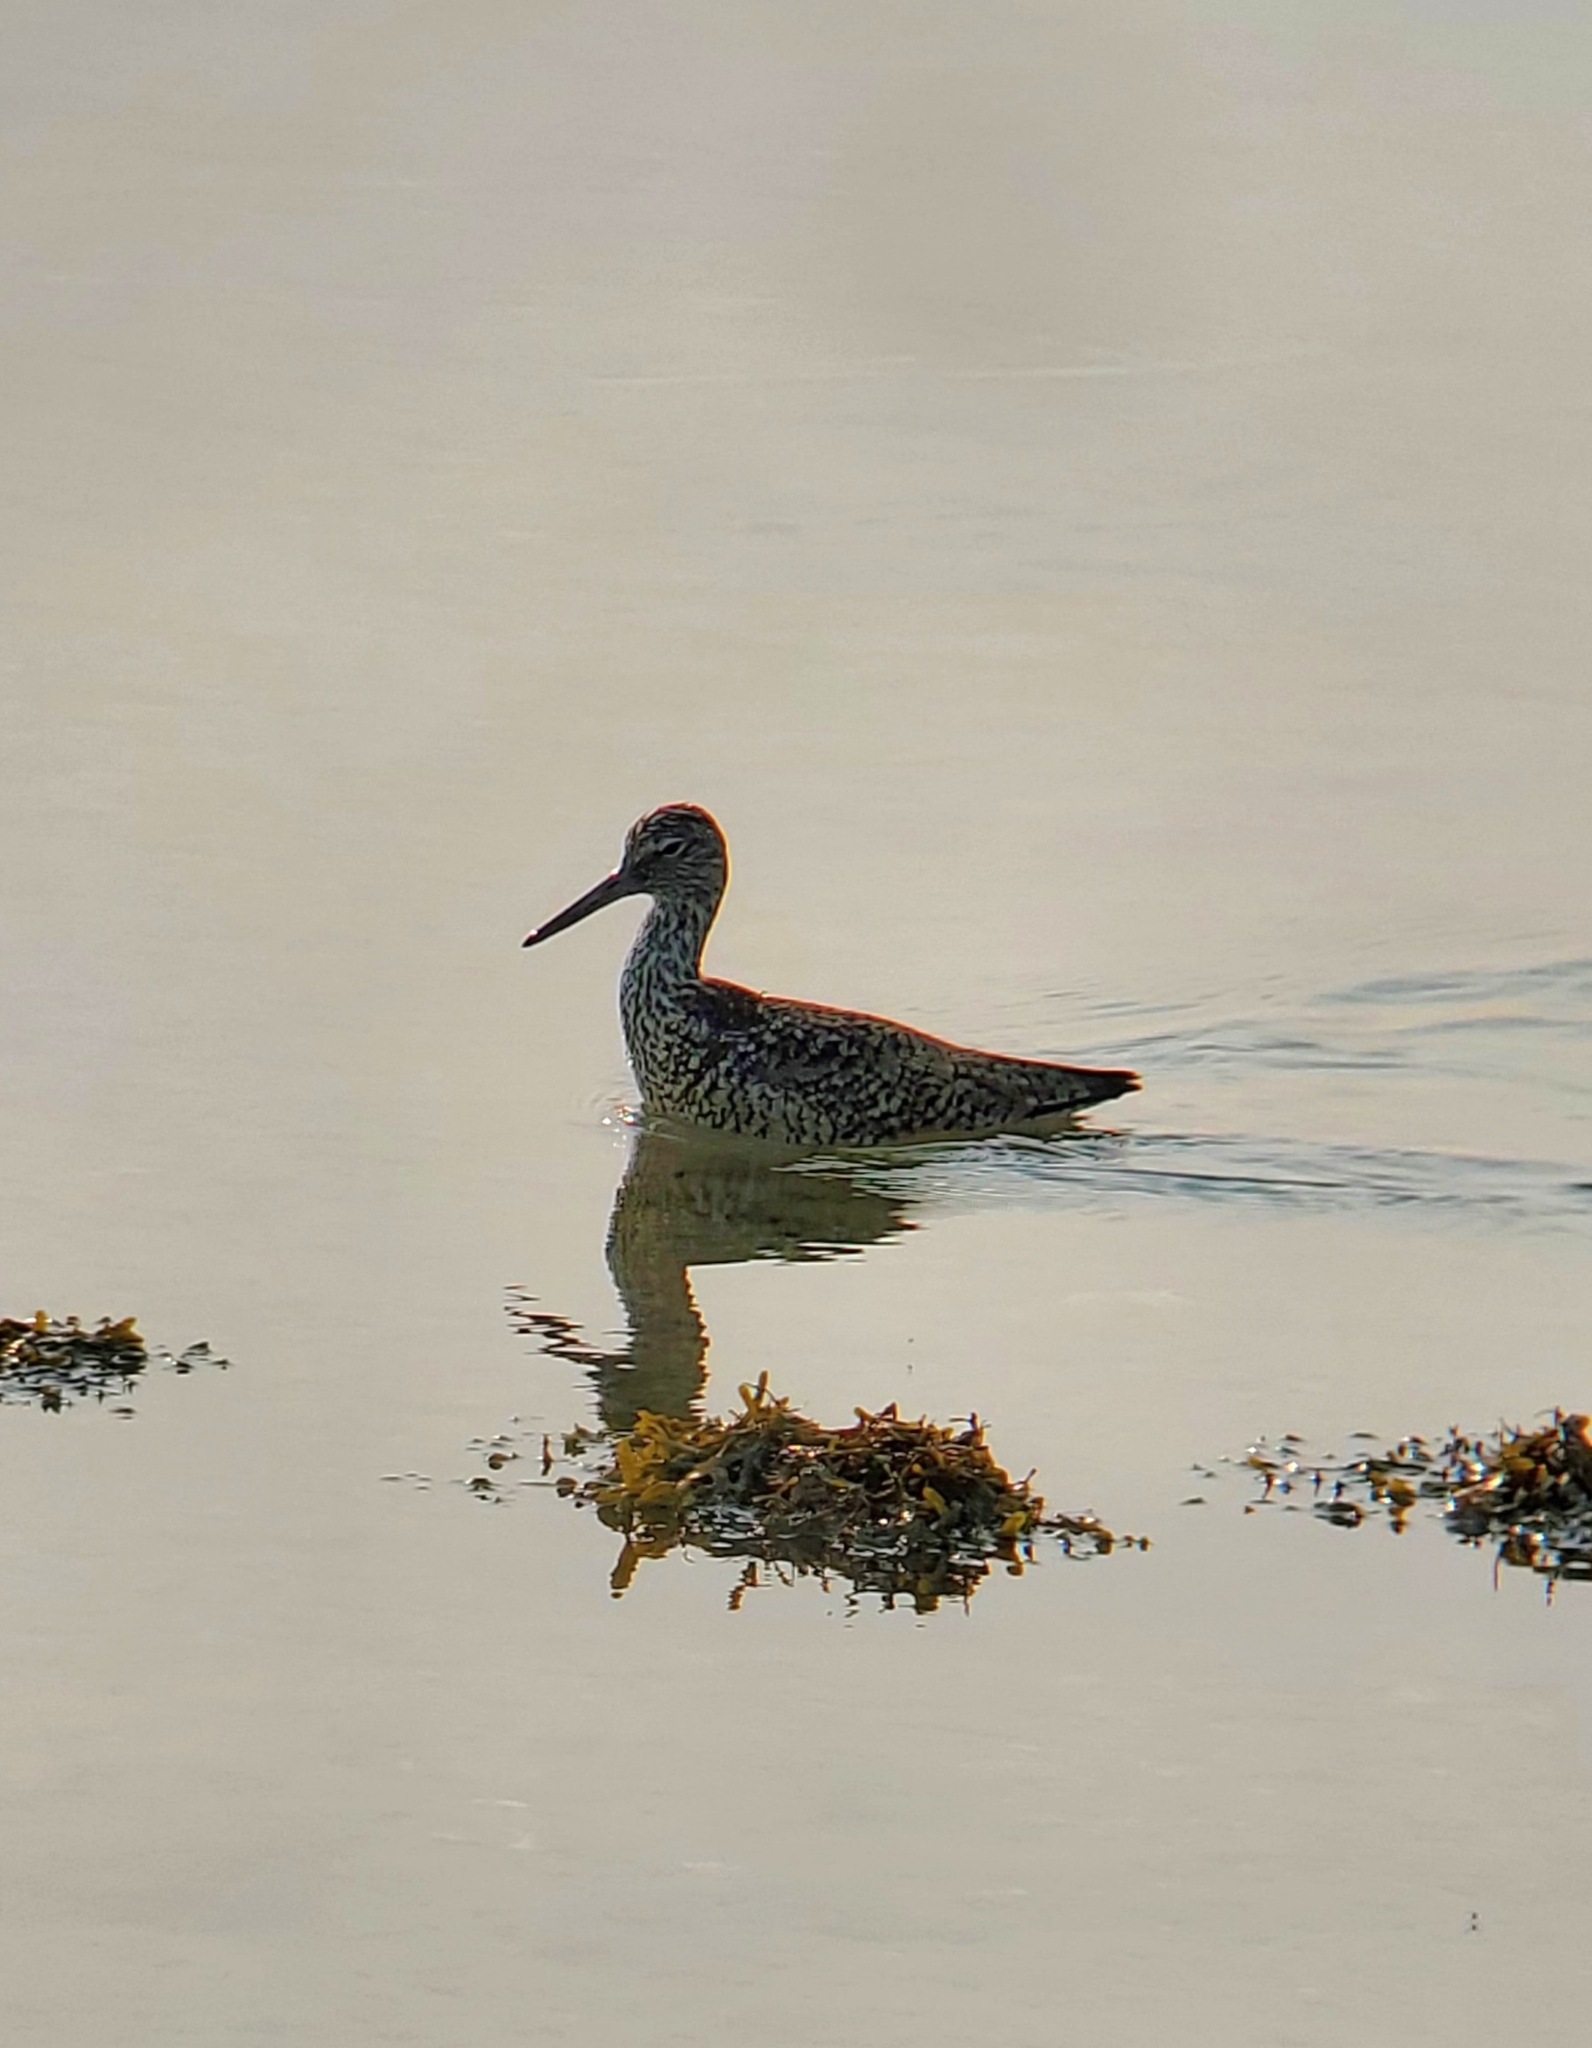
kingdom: Animalia
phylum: Chordata
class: Aves
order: Charadriiformes
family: Scolopacidae
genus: Tringa
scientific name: Tringa semipalmata
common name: Willet
